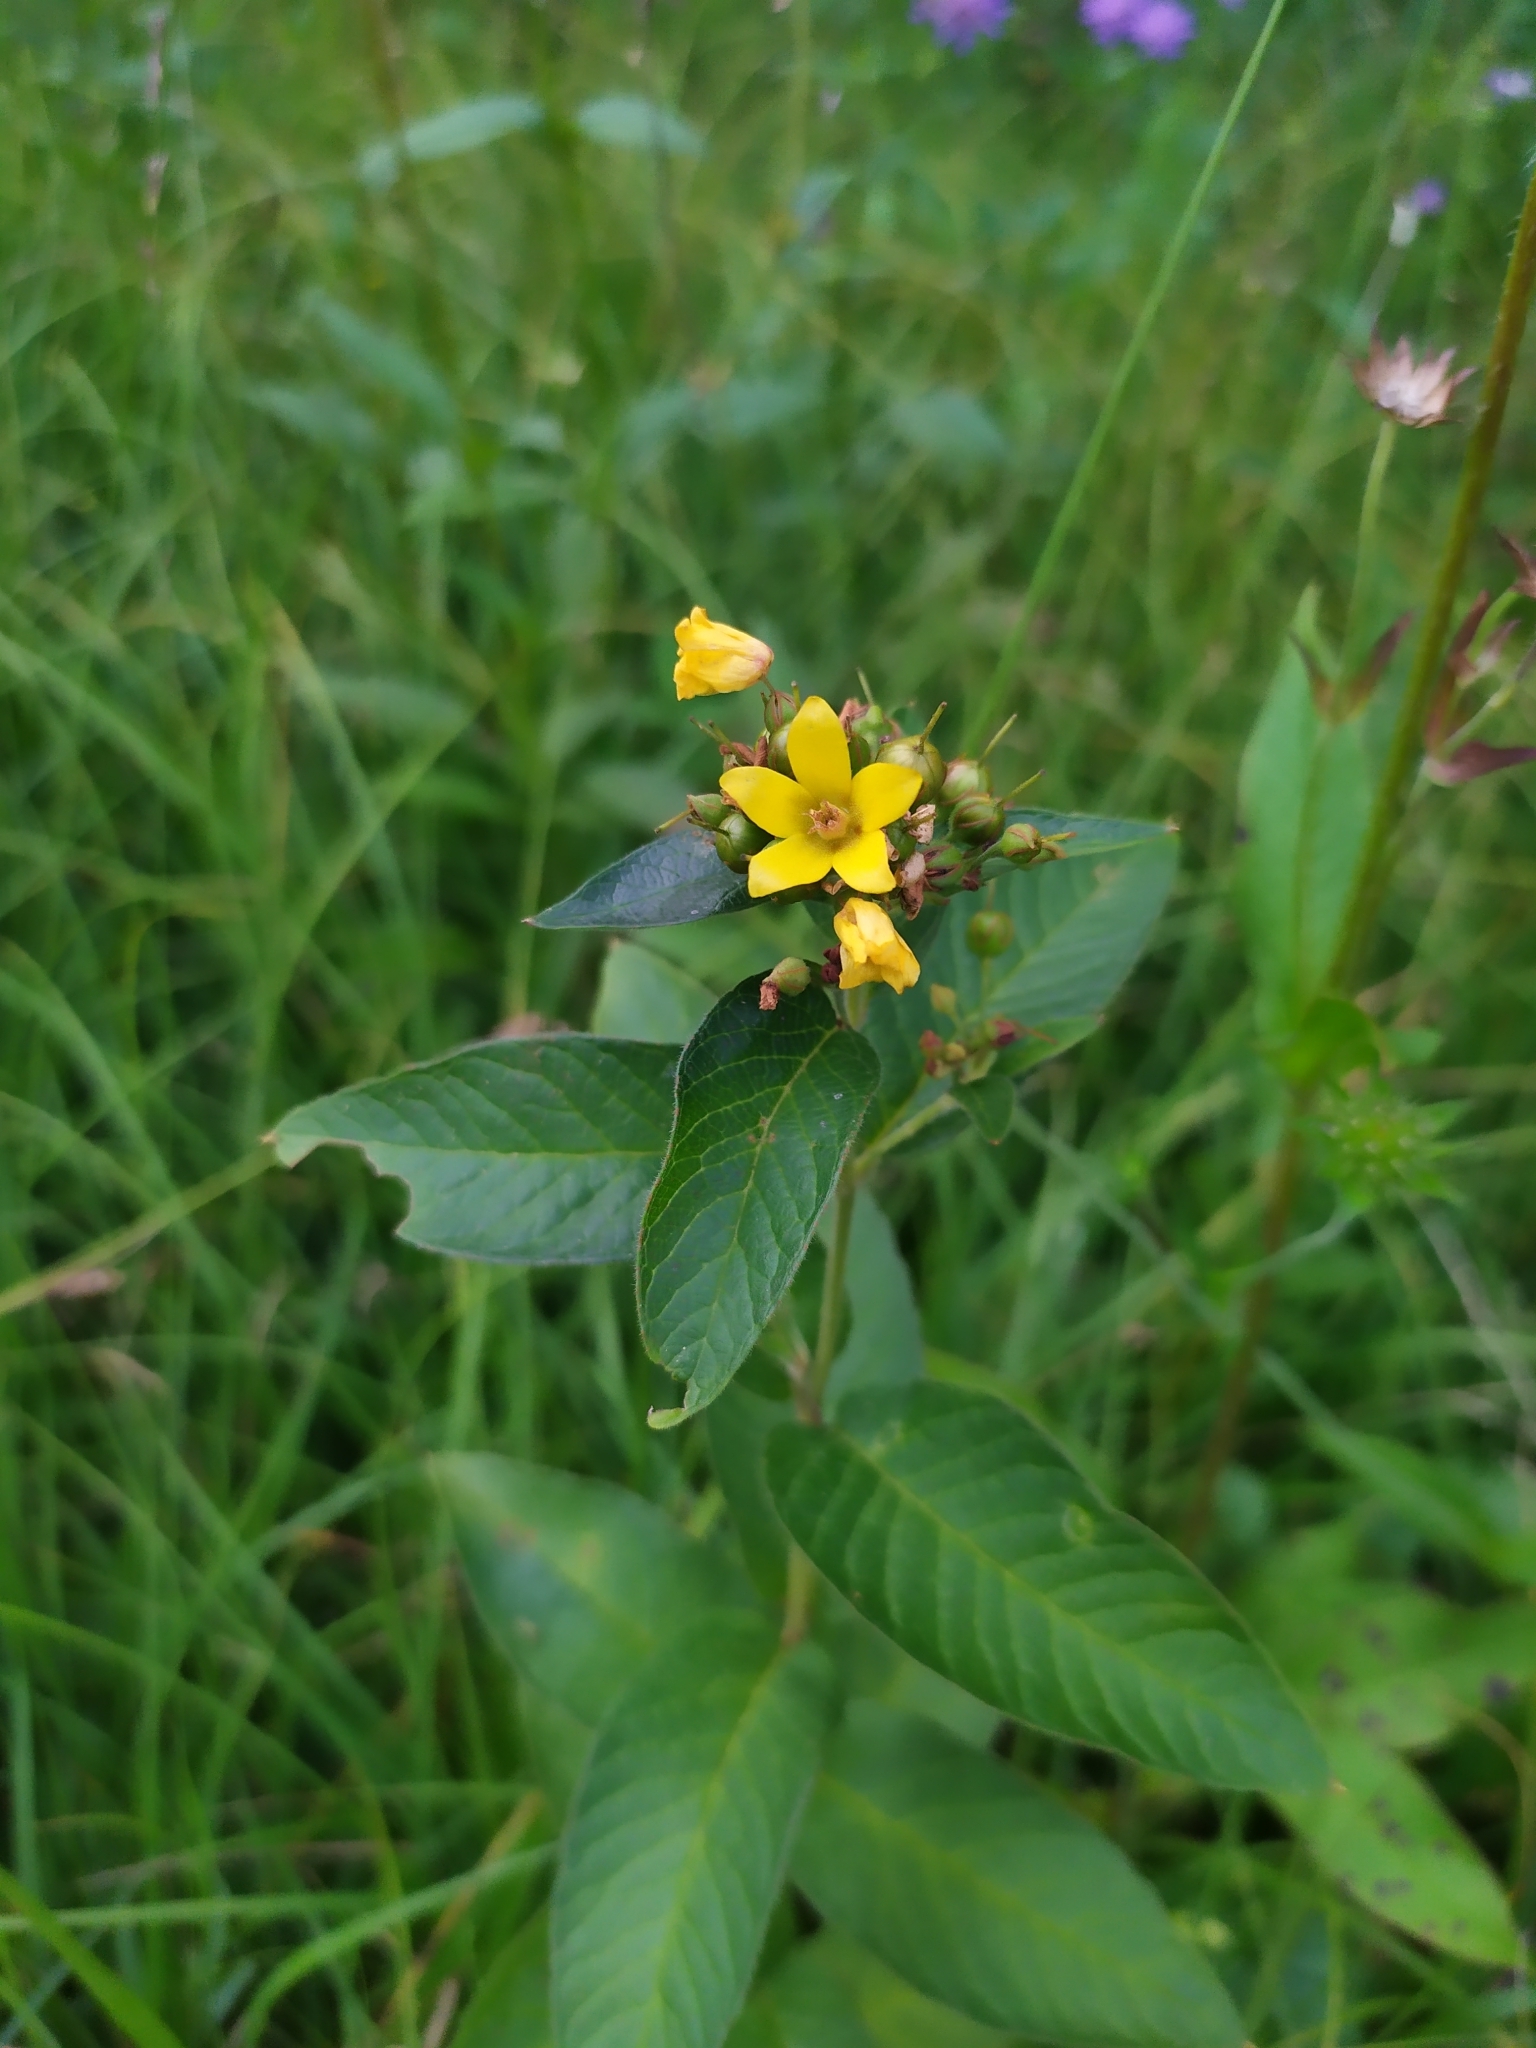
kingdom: Plantae
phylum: Tracheophyta
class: Magnoliopsida
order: Ericales
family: Primulaceae
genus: Lysimachia
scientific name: Lysimachia vulgaris
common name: Yellow loosestrife
